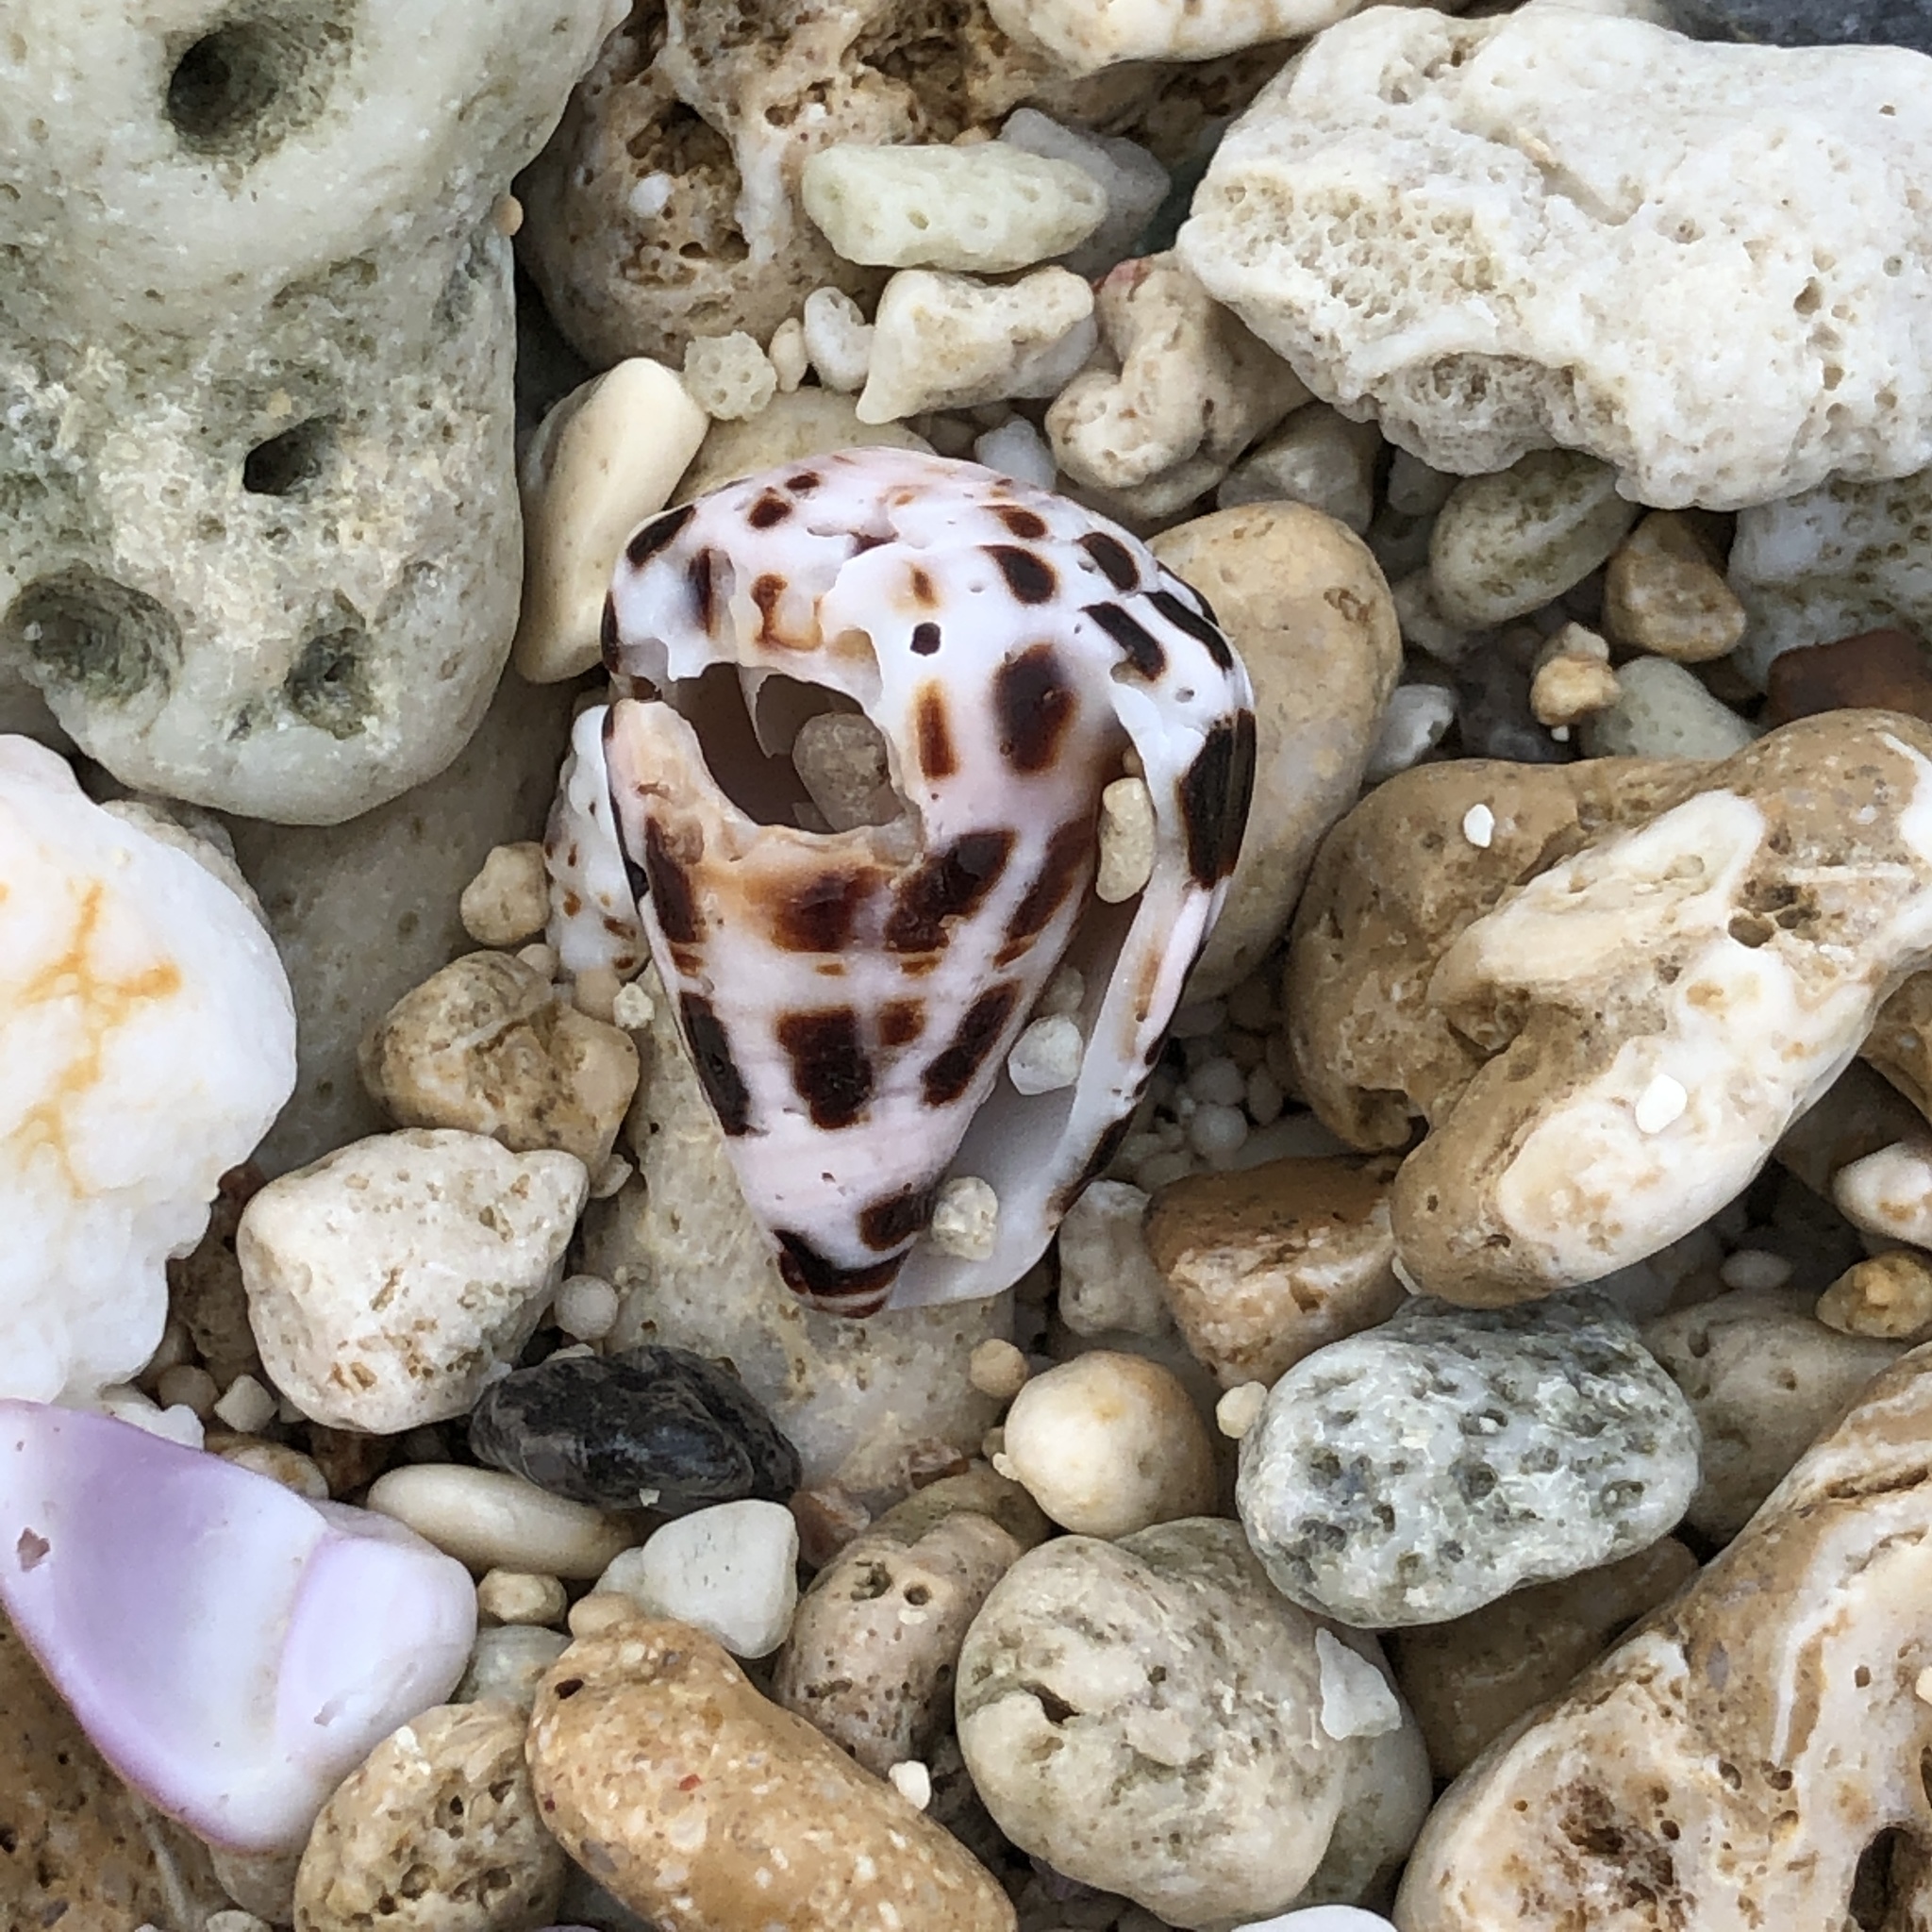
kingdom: Animalia
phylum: Mollusca
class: Gastropoda
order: Neogastropoda
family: Conidae
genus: Conus
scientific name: Conus ebraeus
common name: Hebrew cone
